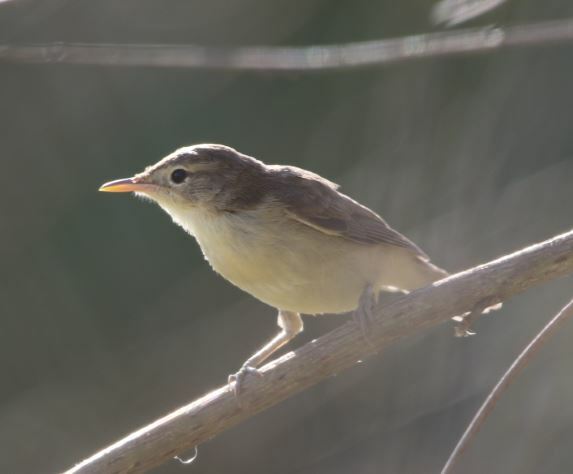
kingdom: Animalia
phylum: Chordata
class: Aves
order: Passeriformes
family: Acrocephalidae
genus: Hippolais
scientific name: Hippolais polyglotta
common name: Melodious warbler
